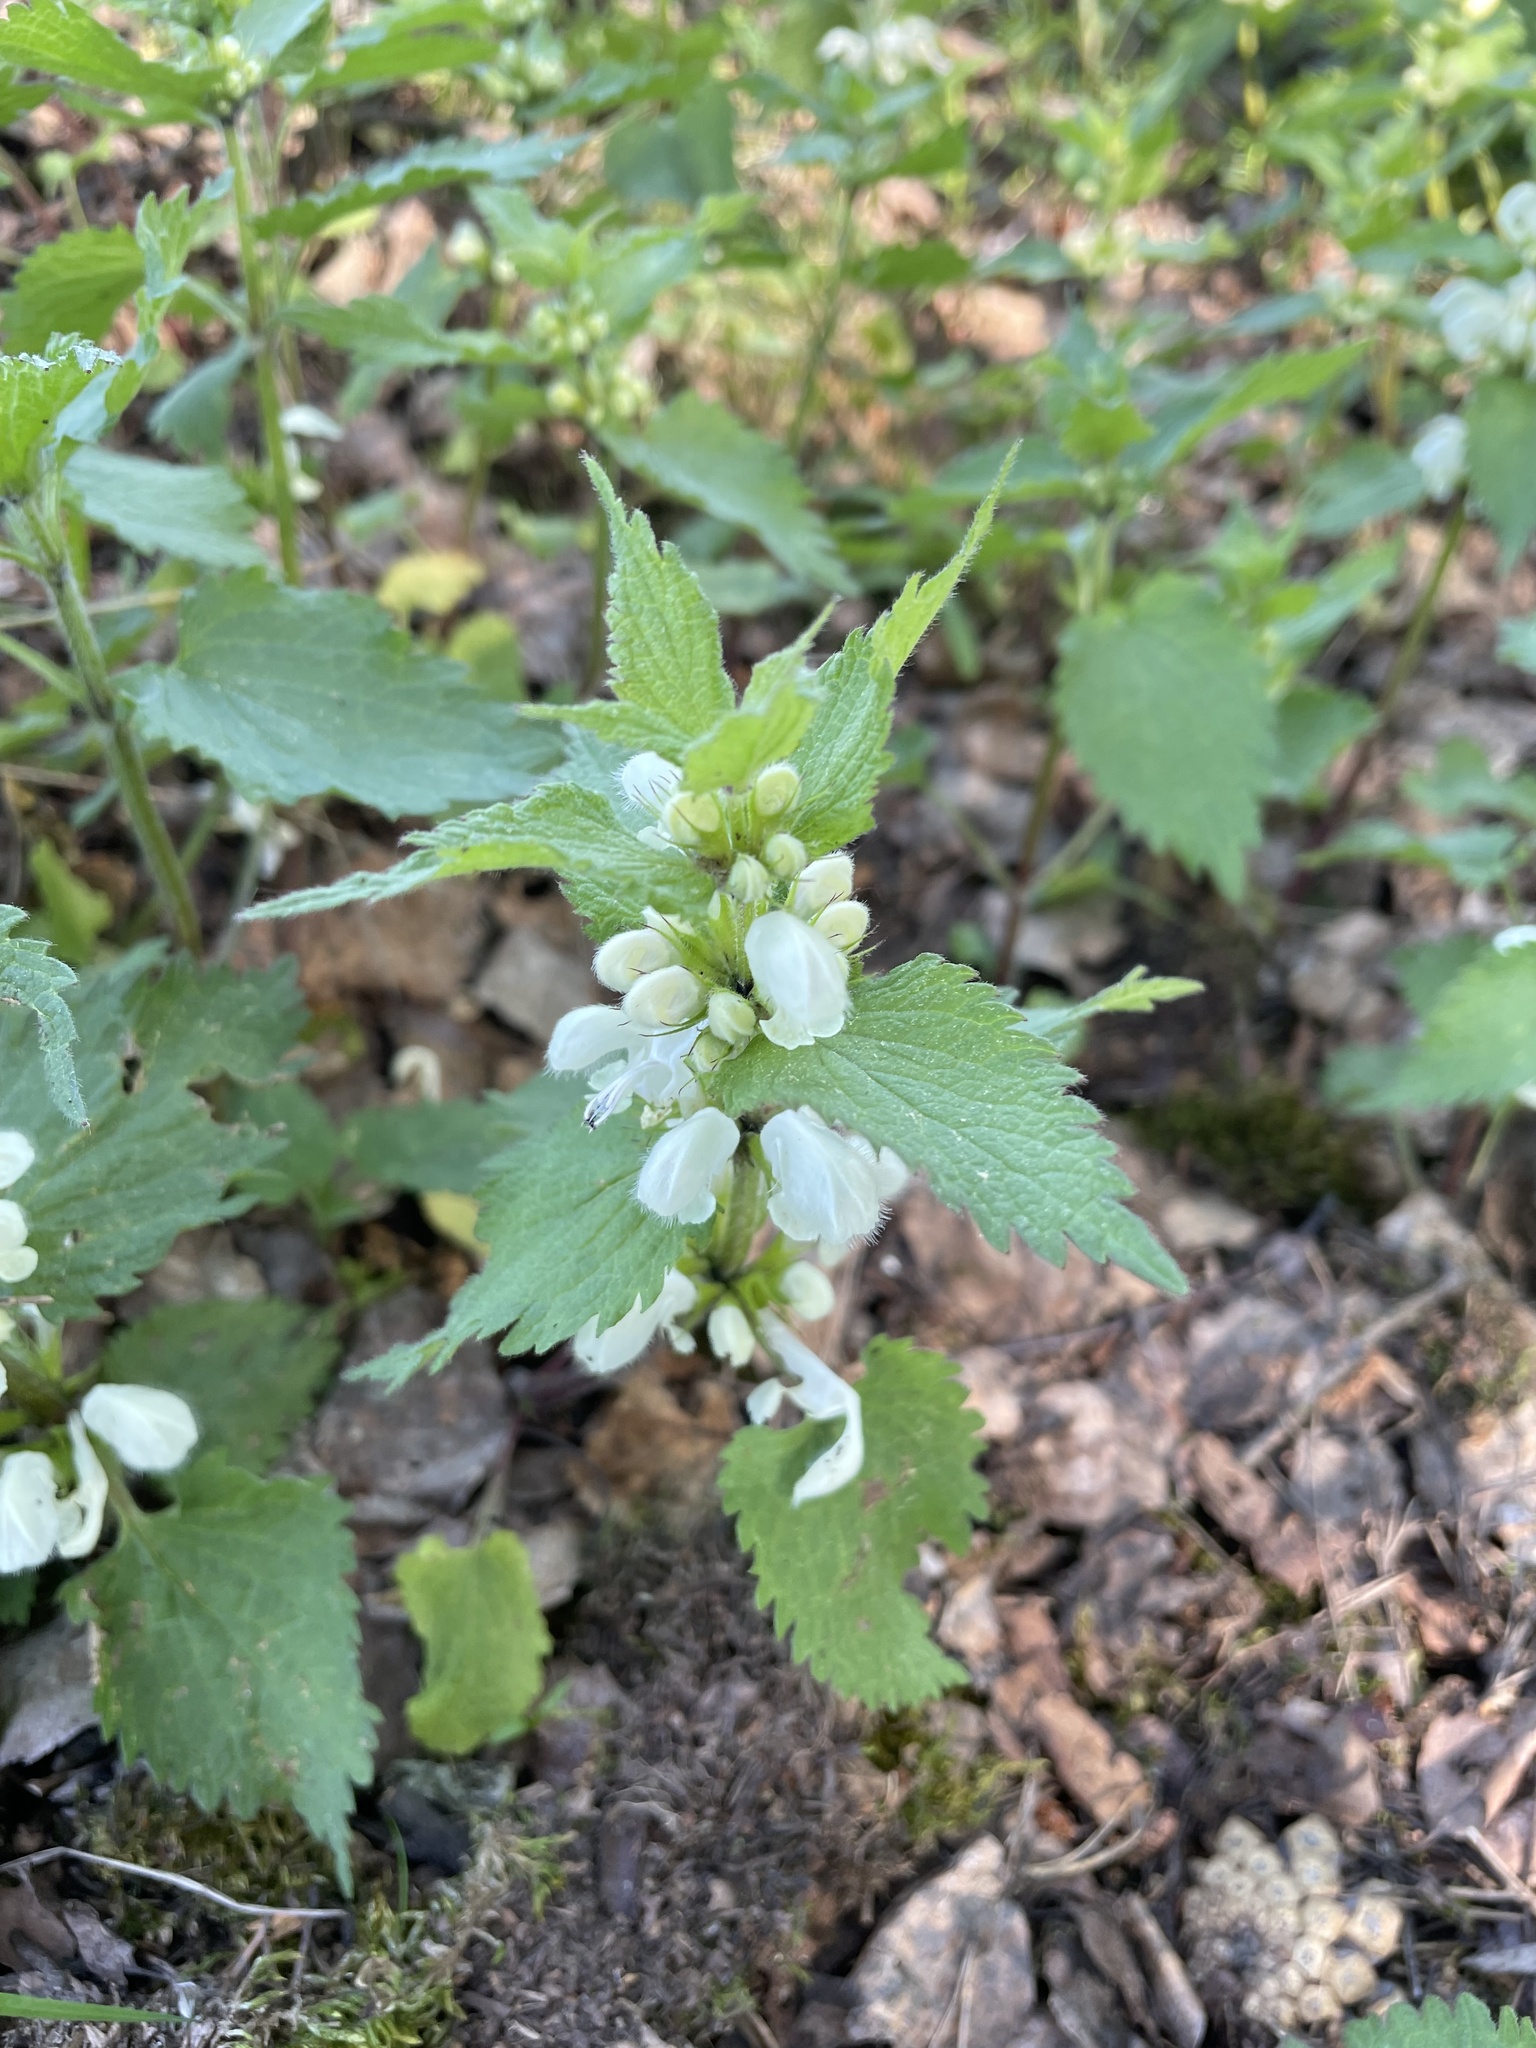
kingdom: Plantae
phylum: Tracheophyta
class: Magnoliopsida
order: Lamiales
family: Lamiaceae
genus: Lamium
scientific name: Lamium album
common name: White dead-nettle
